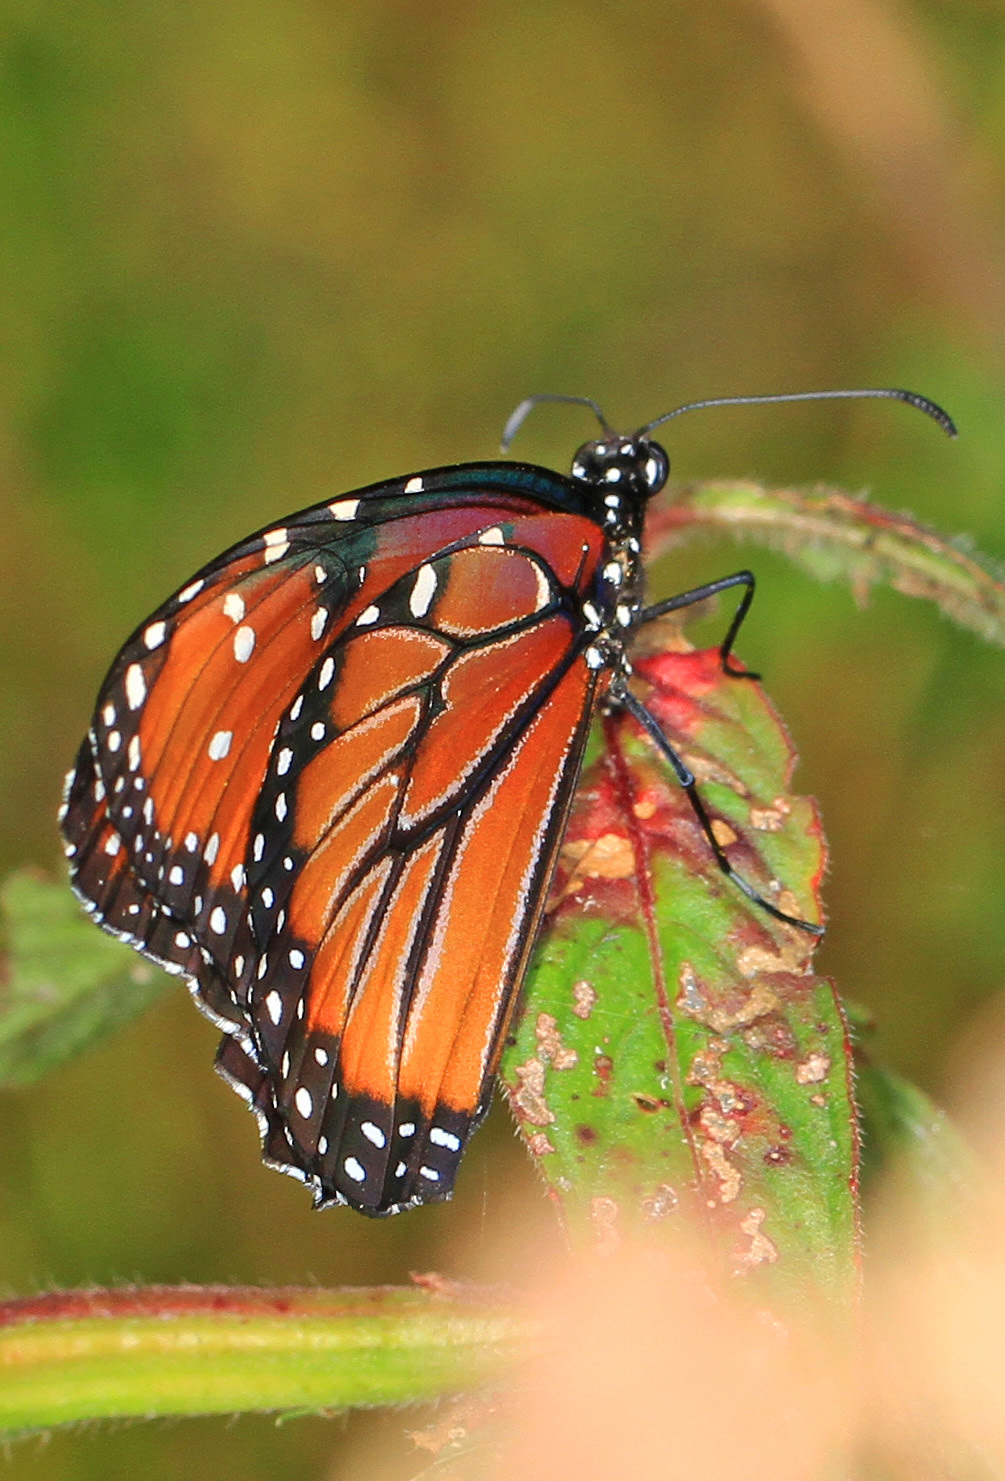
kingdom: Animalia
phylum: Arthropoda
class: Insecta
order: Lepidoptera
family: Nymphalidae
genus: Danaus
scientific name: Danaus gilippus
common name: Queen
